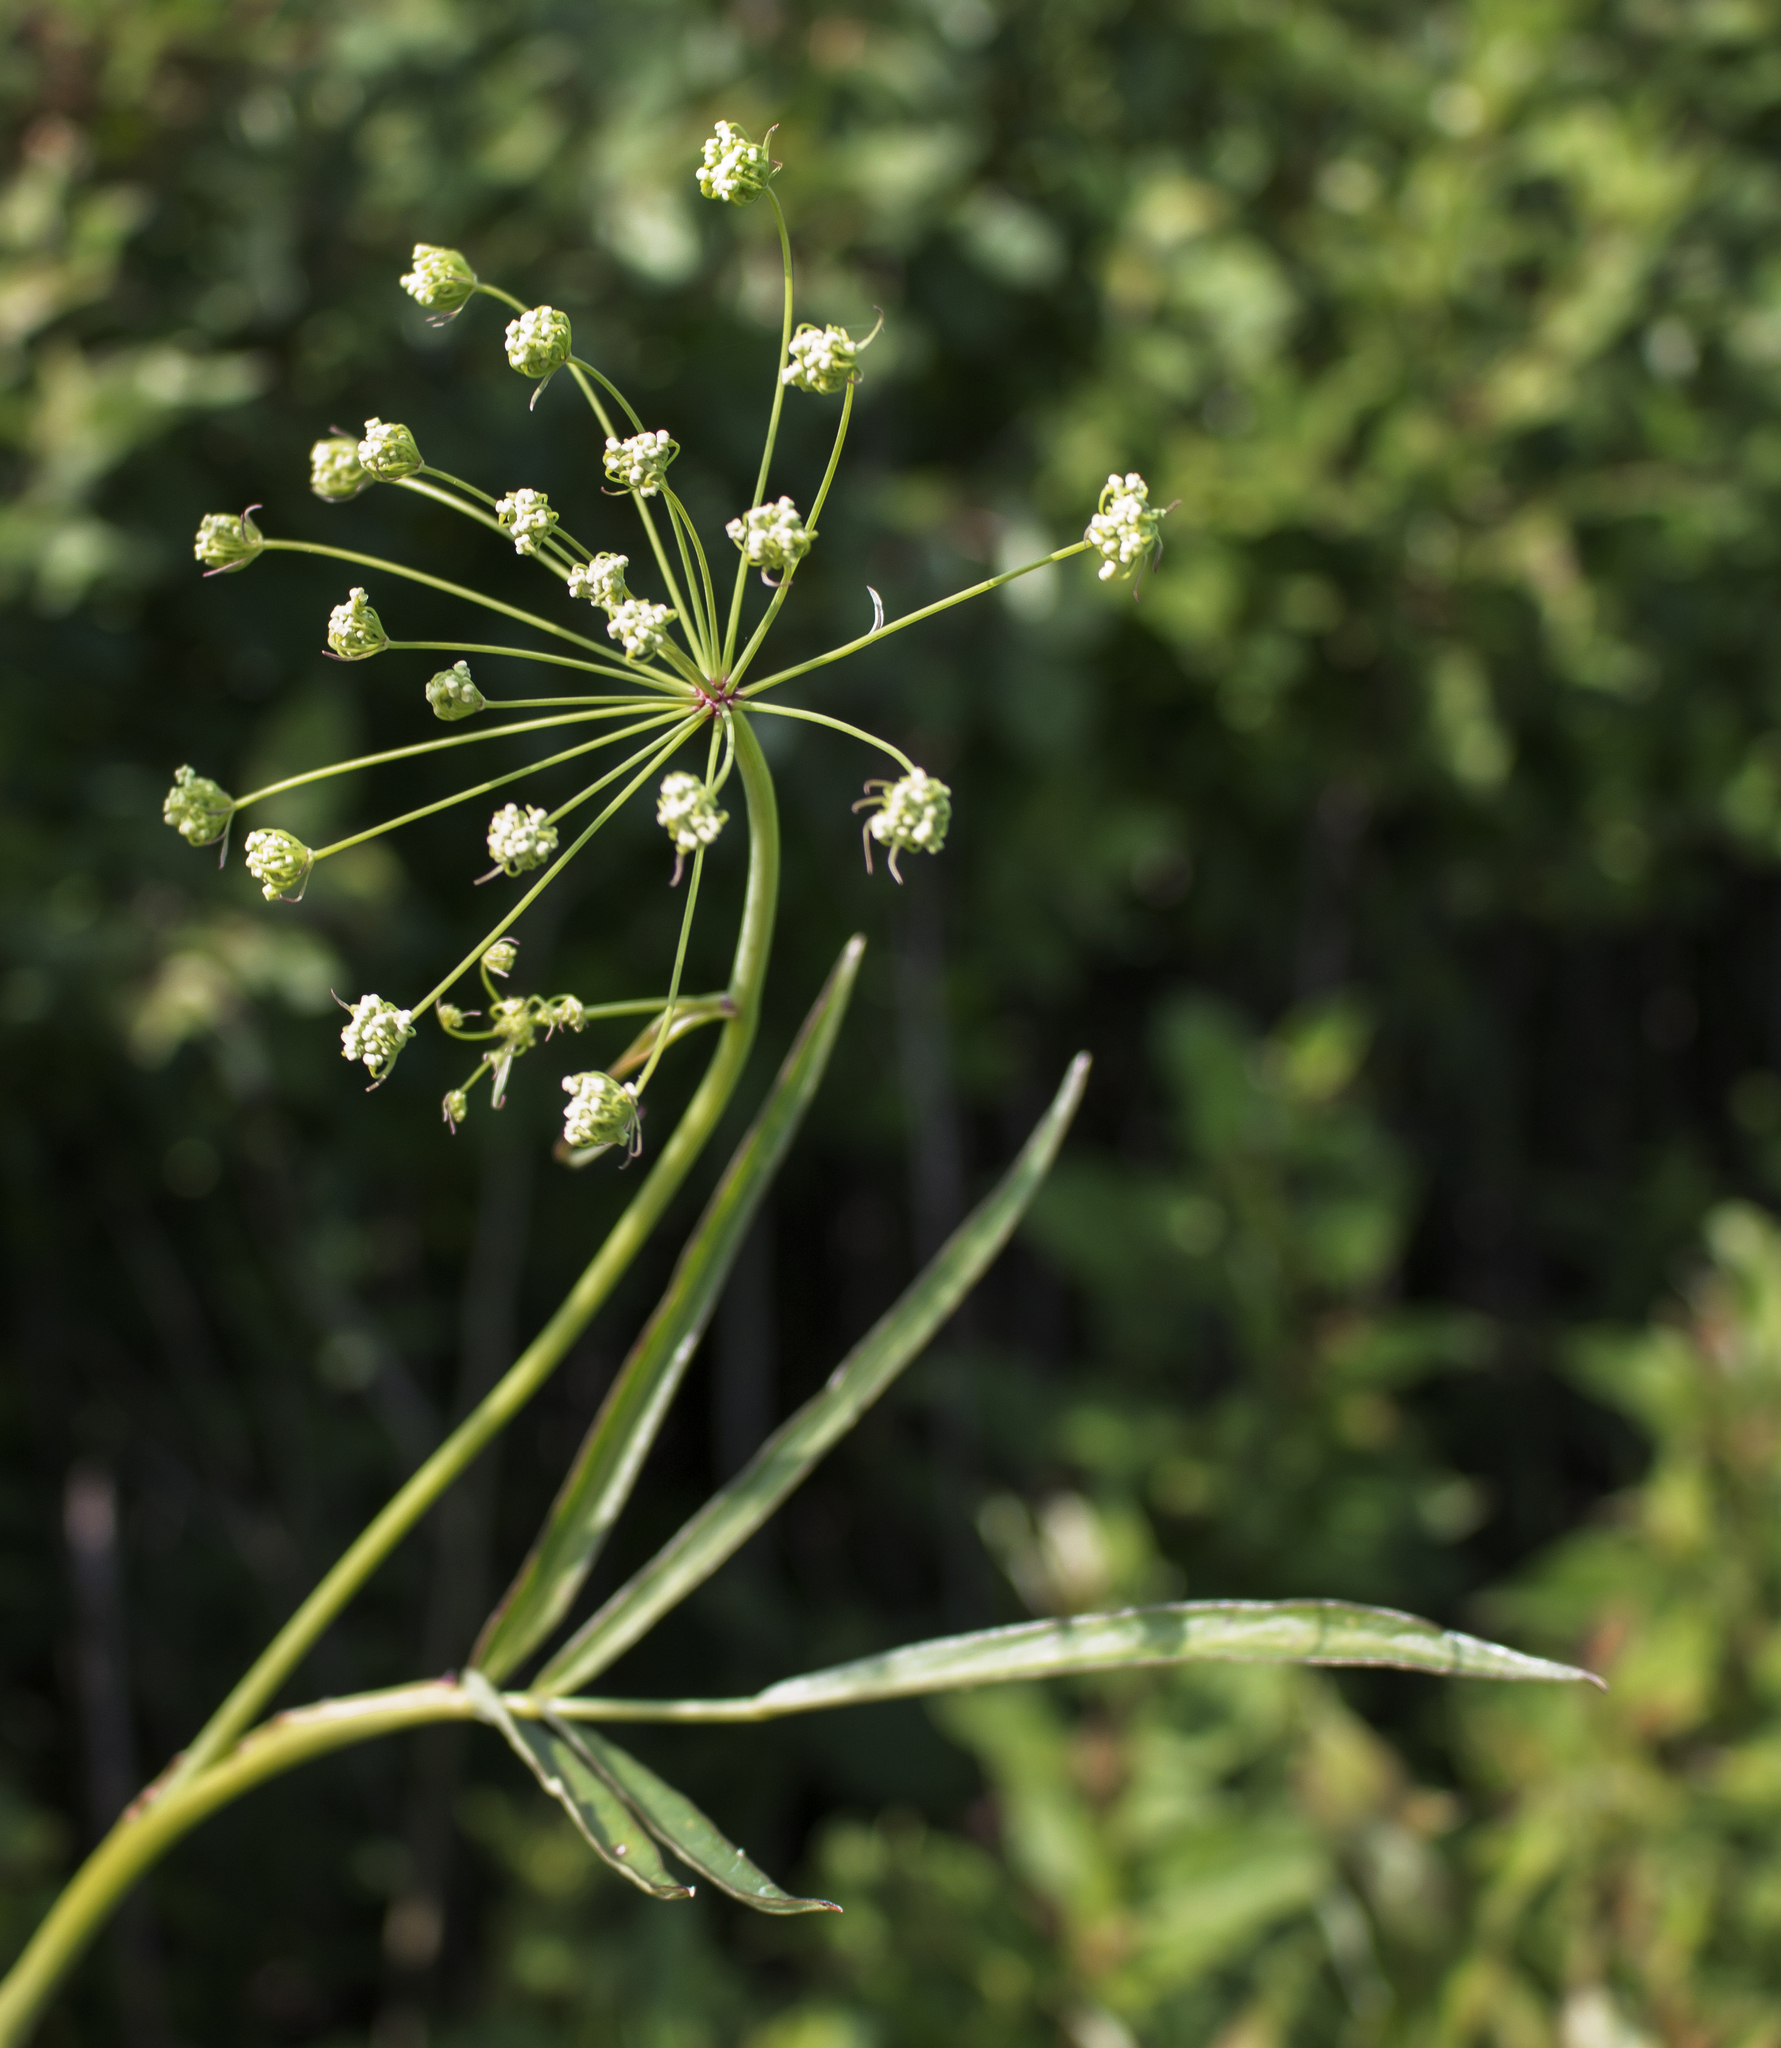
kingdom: Plantae
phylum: Tracheophyta
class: Magnoliopsida
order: Apiales
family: Apiaceae
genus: Oxypolis
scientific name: Oxypolis rigidior
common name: Cowbane
